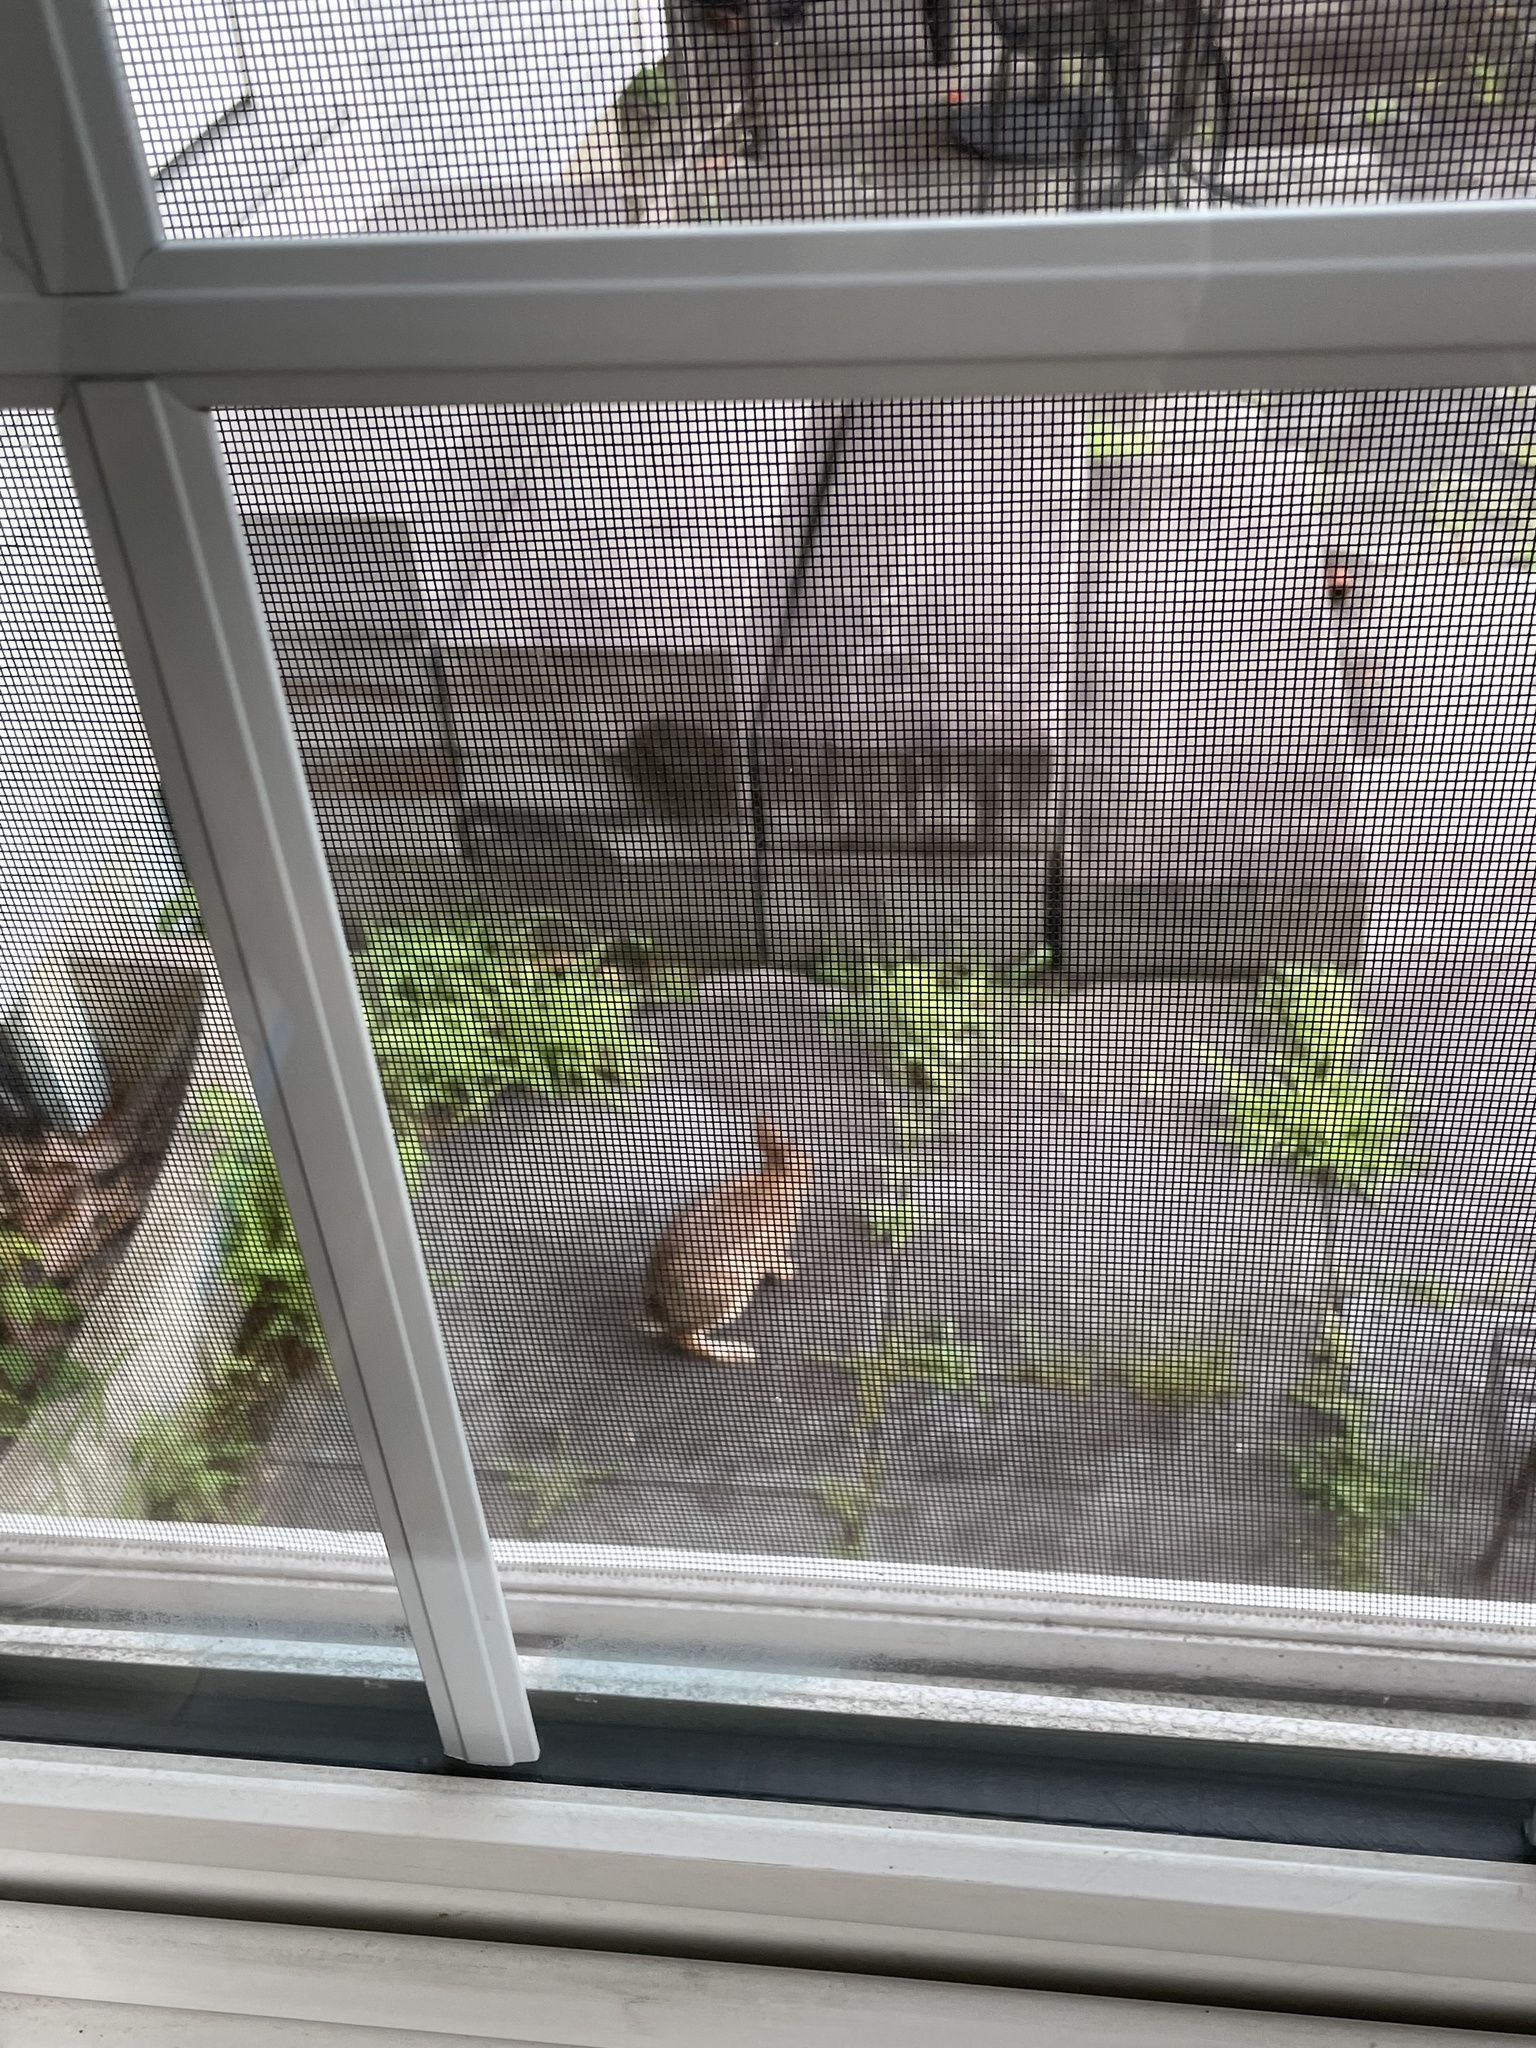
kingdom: Animalia
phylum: Chordata
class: Mammalia
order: Lagomorpha
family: Leporidae
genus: Sylvilagus
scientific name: Sylvilagus floridanus
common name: Eastern cottontail
